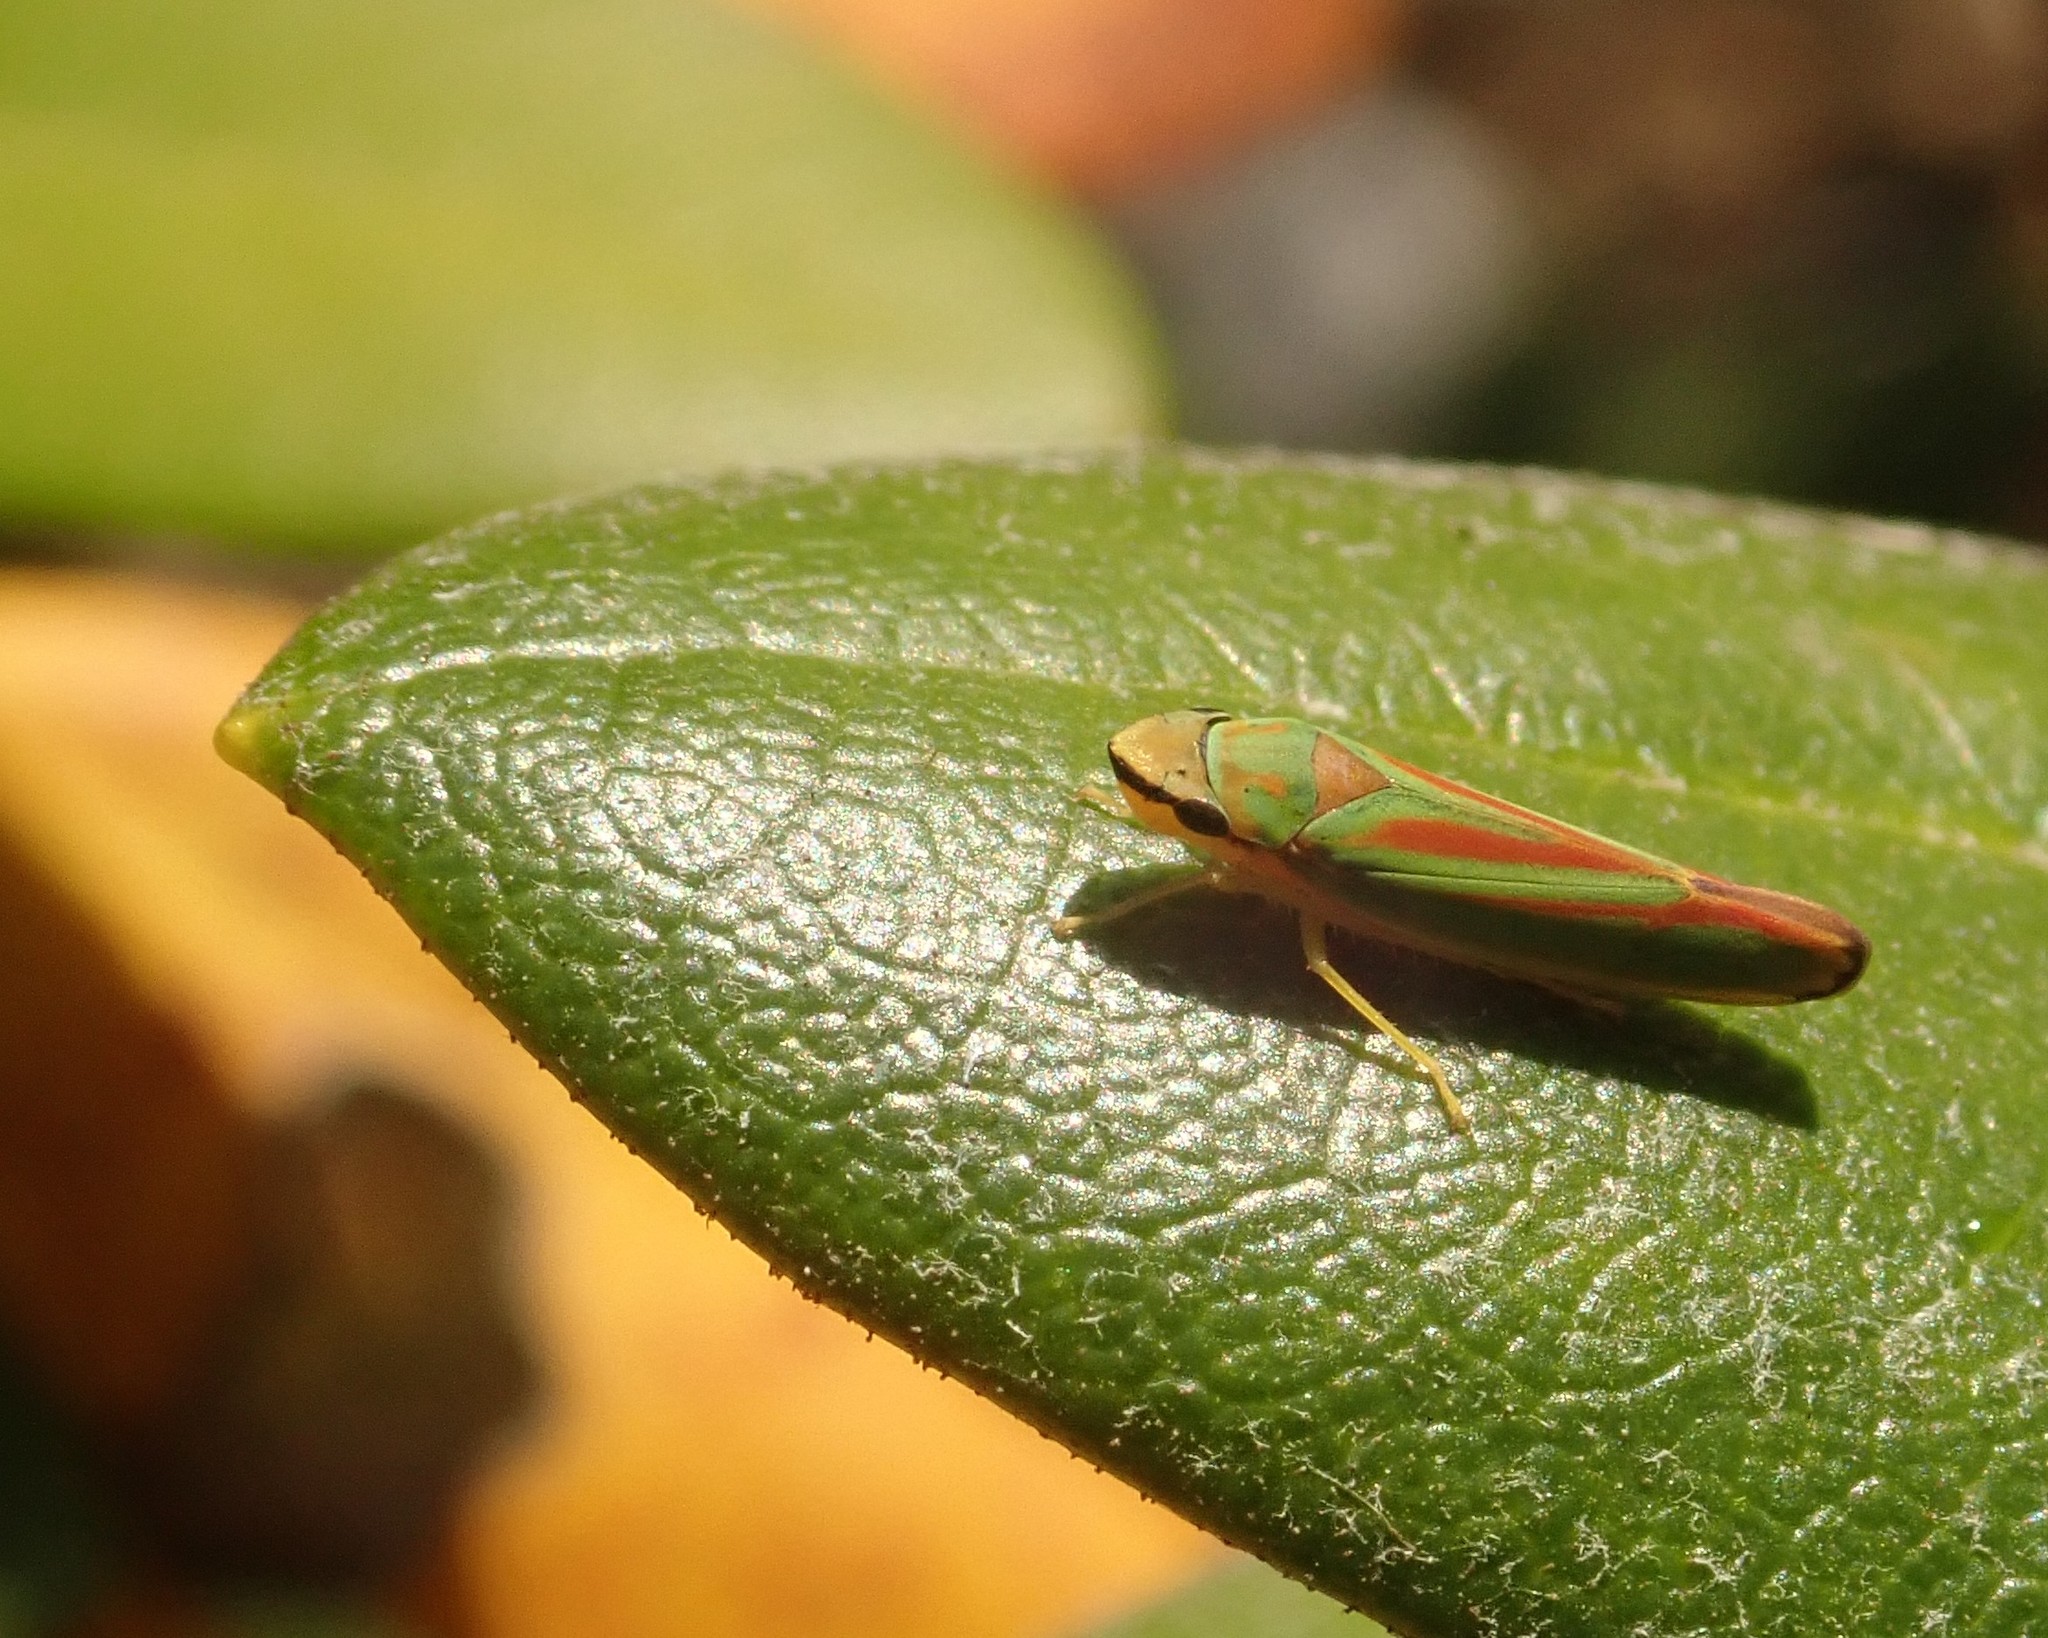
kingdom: Animalia
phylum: Arthropoda
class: Insecta
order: Hemiptera
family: Cicadellidae
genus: Graphocephala
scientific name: Graphocephala fennahi
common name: Rhododendron leafhopper
